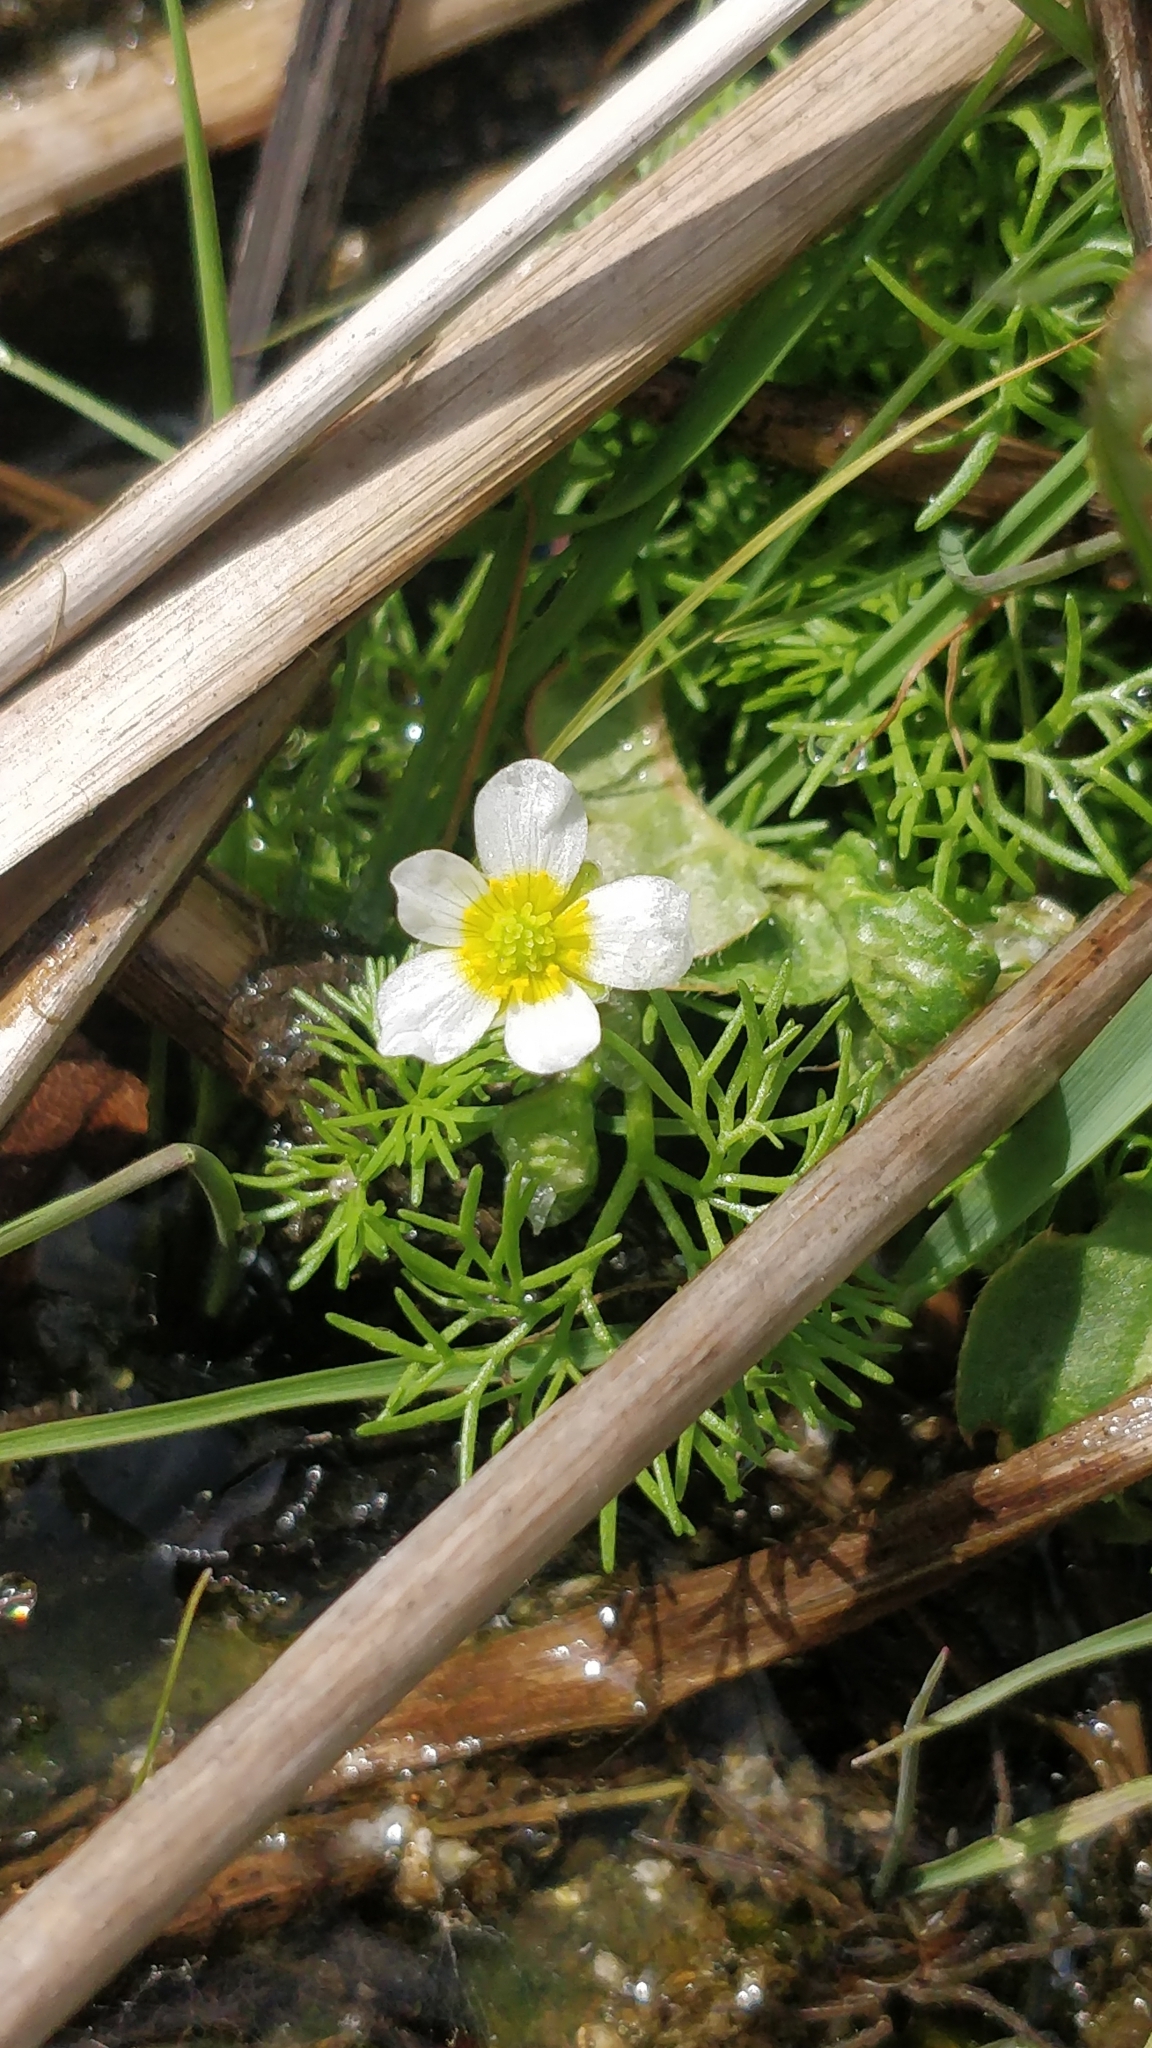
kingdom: Plantae
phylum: Tracheophyta
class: Magnoliopsida
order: Ranunculales
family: Ranunculaceae
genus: Ranunculus
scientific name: Ranunculus aquatilis
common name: Common water-crowfoot
